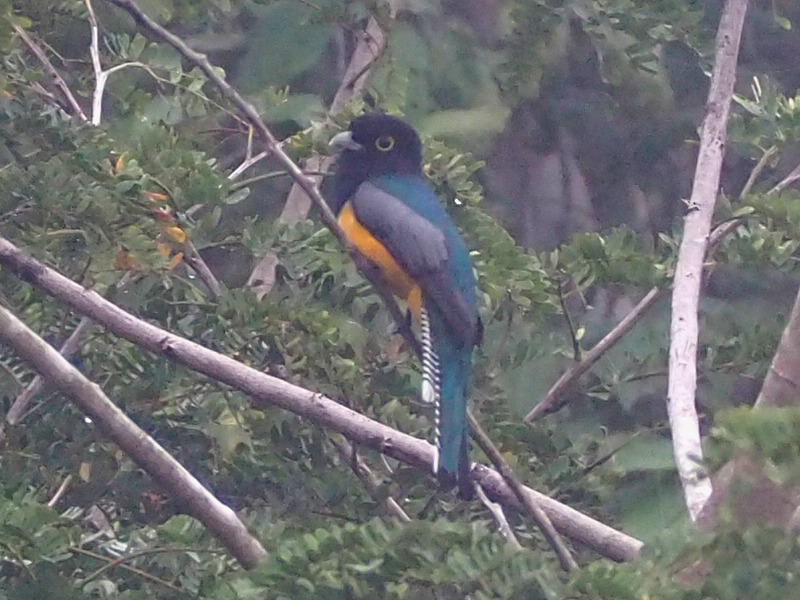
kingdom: Animalia
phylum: Chordata
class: Aves
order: Trogoniformes
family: Trogonidae
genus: Trogon
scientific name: Trogon caligatus
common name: Gartered trogon
